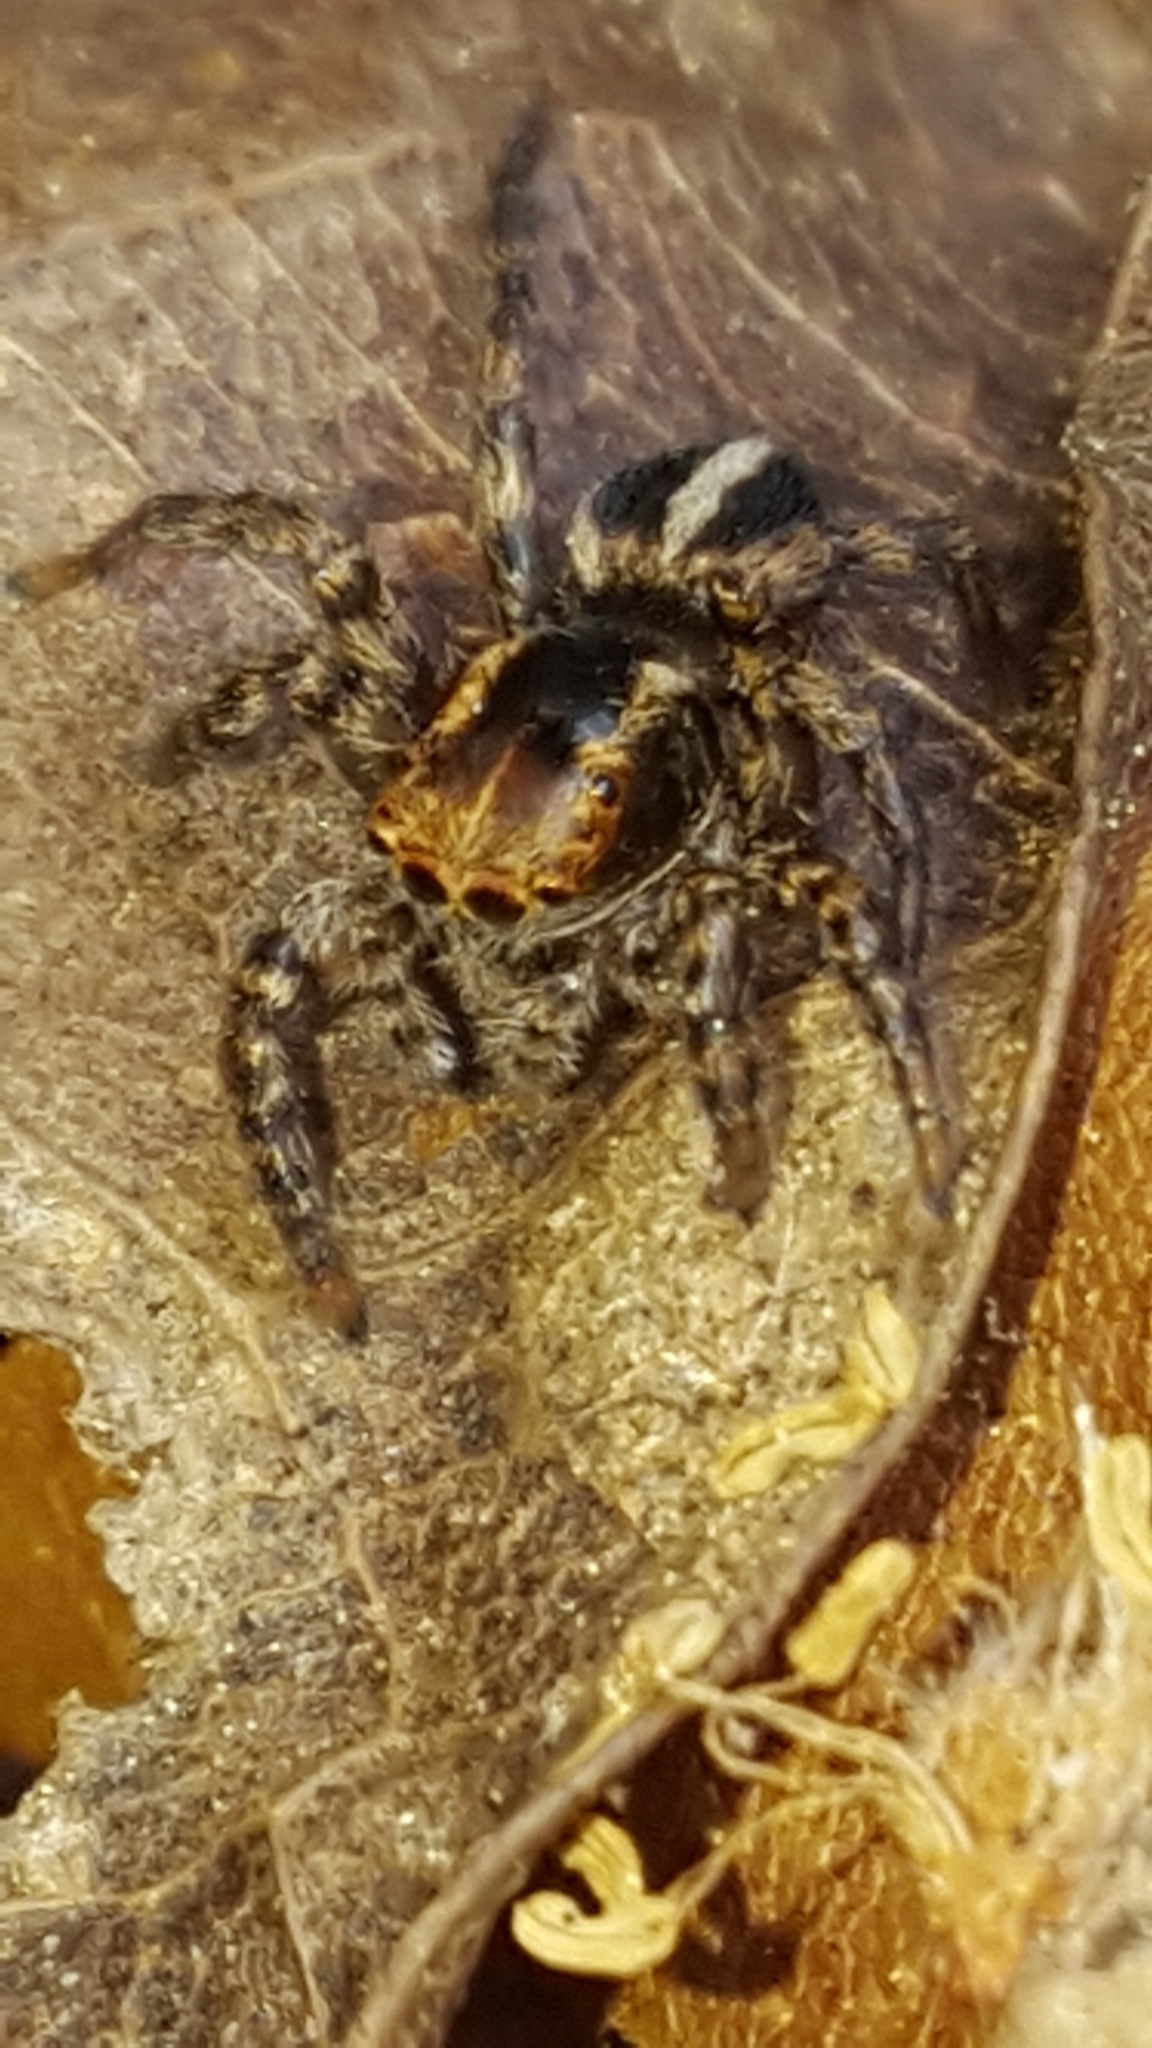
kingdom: Animalia
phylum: Arthropoda
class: Arachnida
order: Araneae
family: Salticidae
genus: Phlegra
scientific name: Phlegra hentzi
